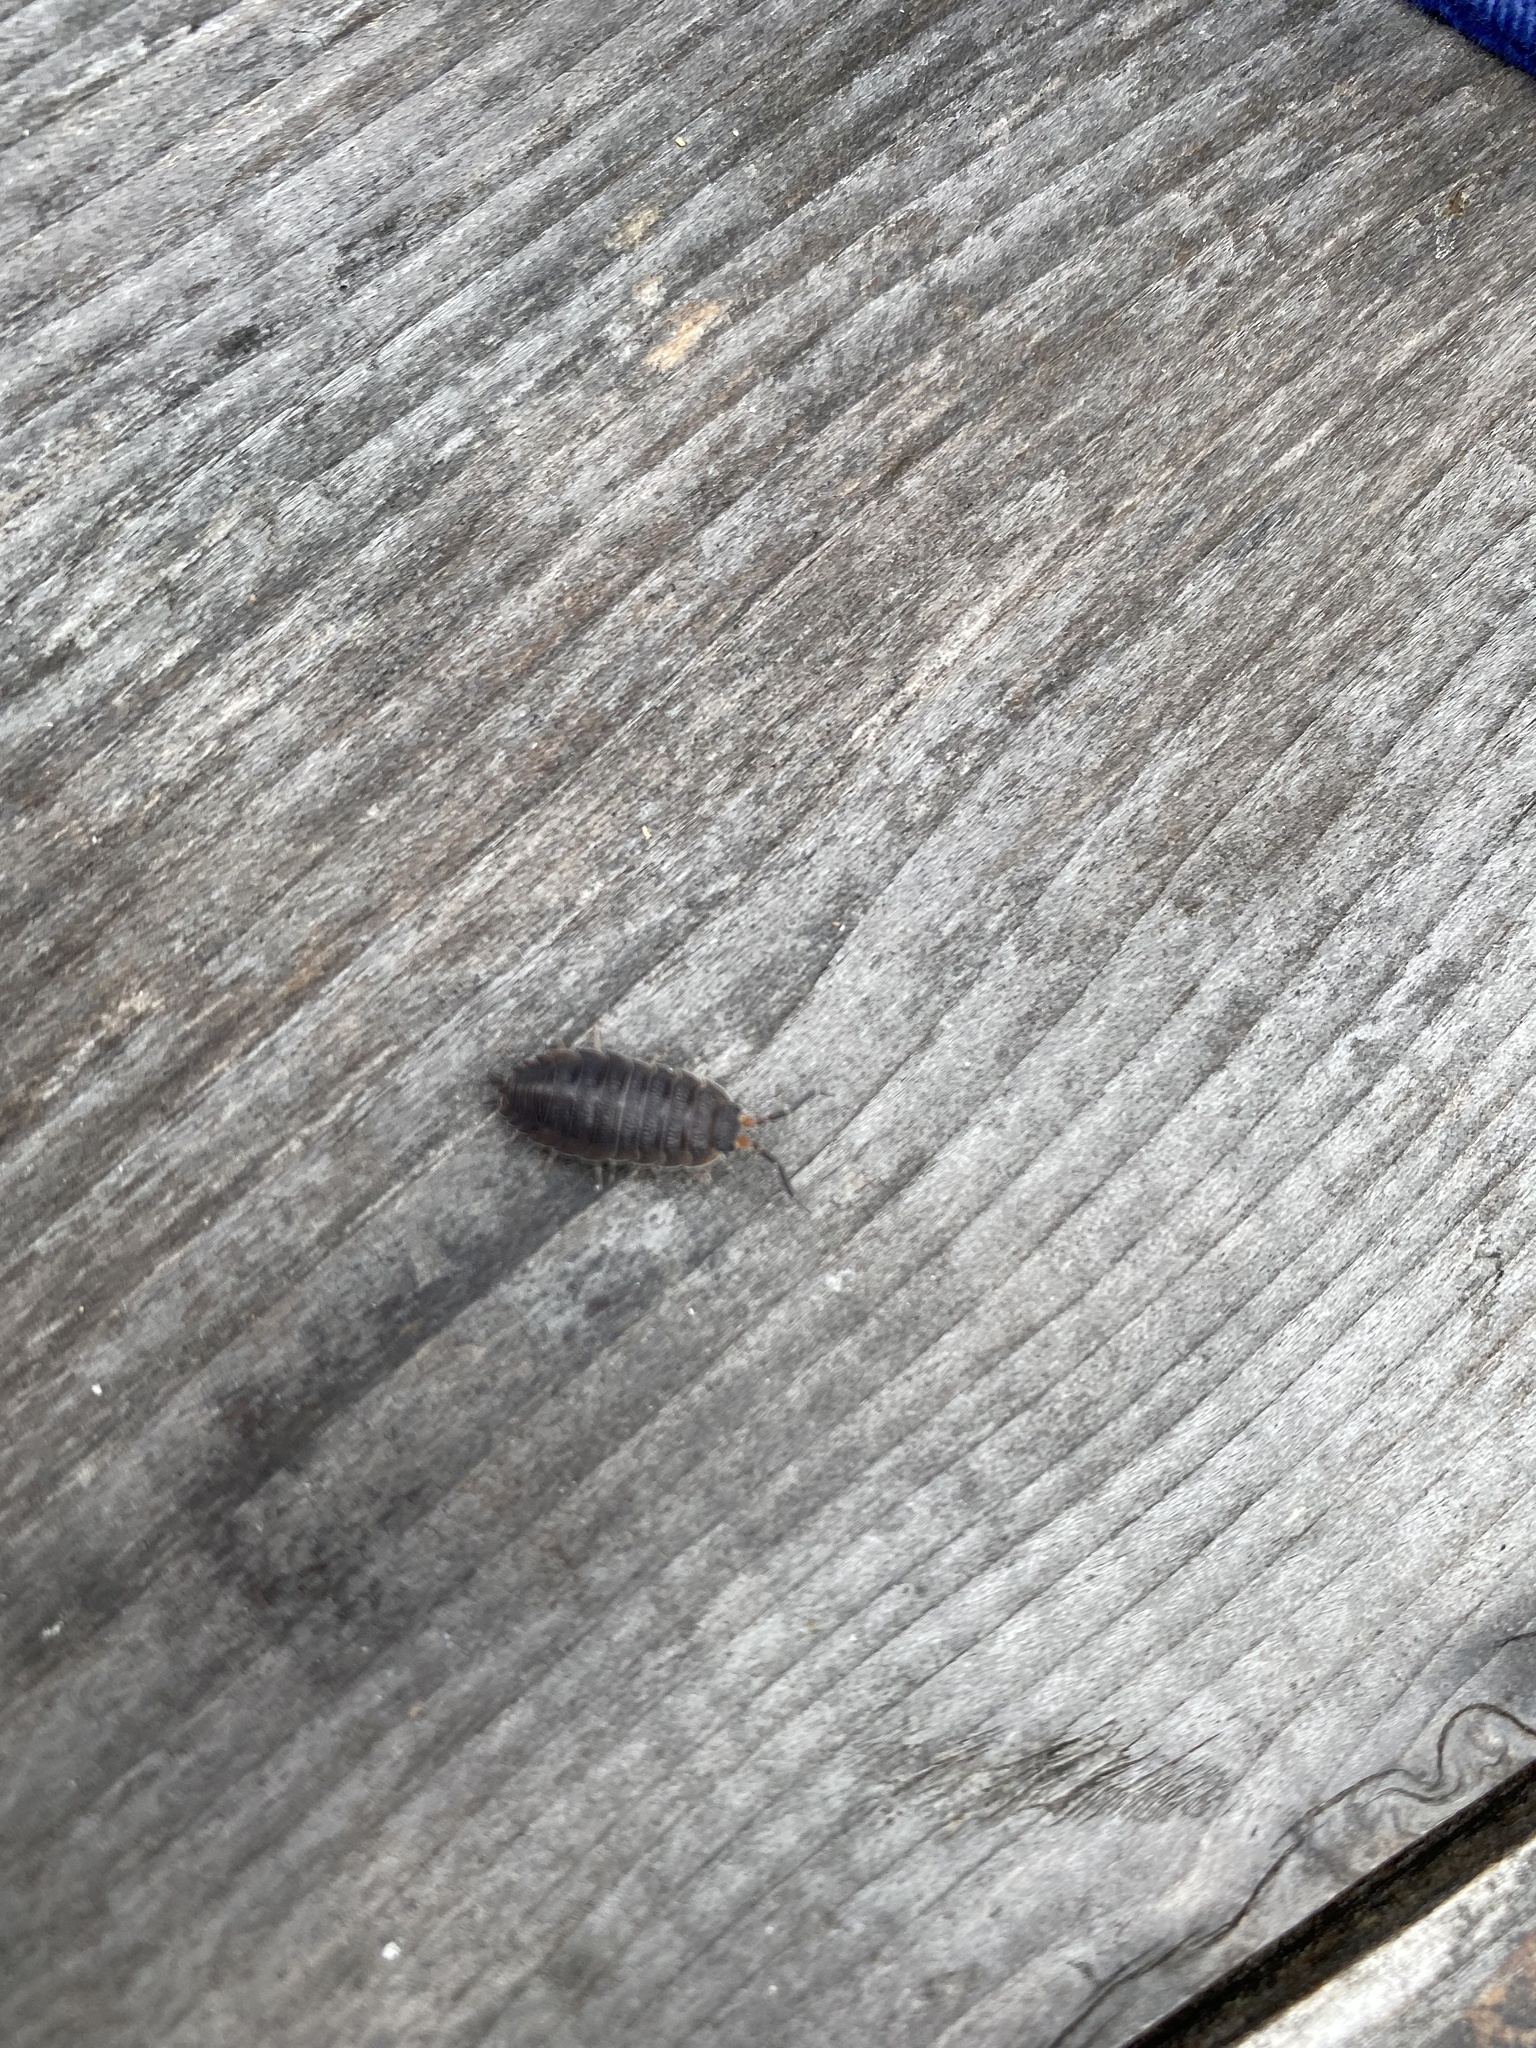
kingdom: Animalia
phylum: Arthropoda
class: Malacostraca
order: Isopoda
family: Porcellionidae
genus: Porcellio
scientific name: Porcellio scaber
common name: Common rough woodlouse
